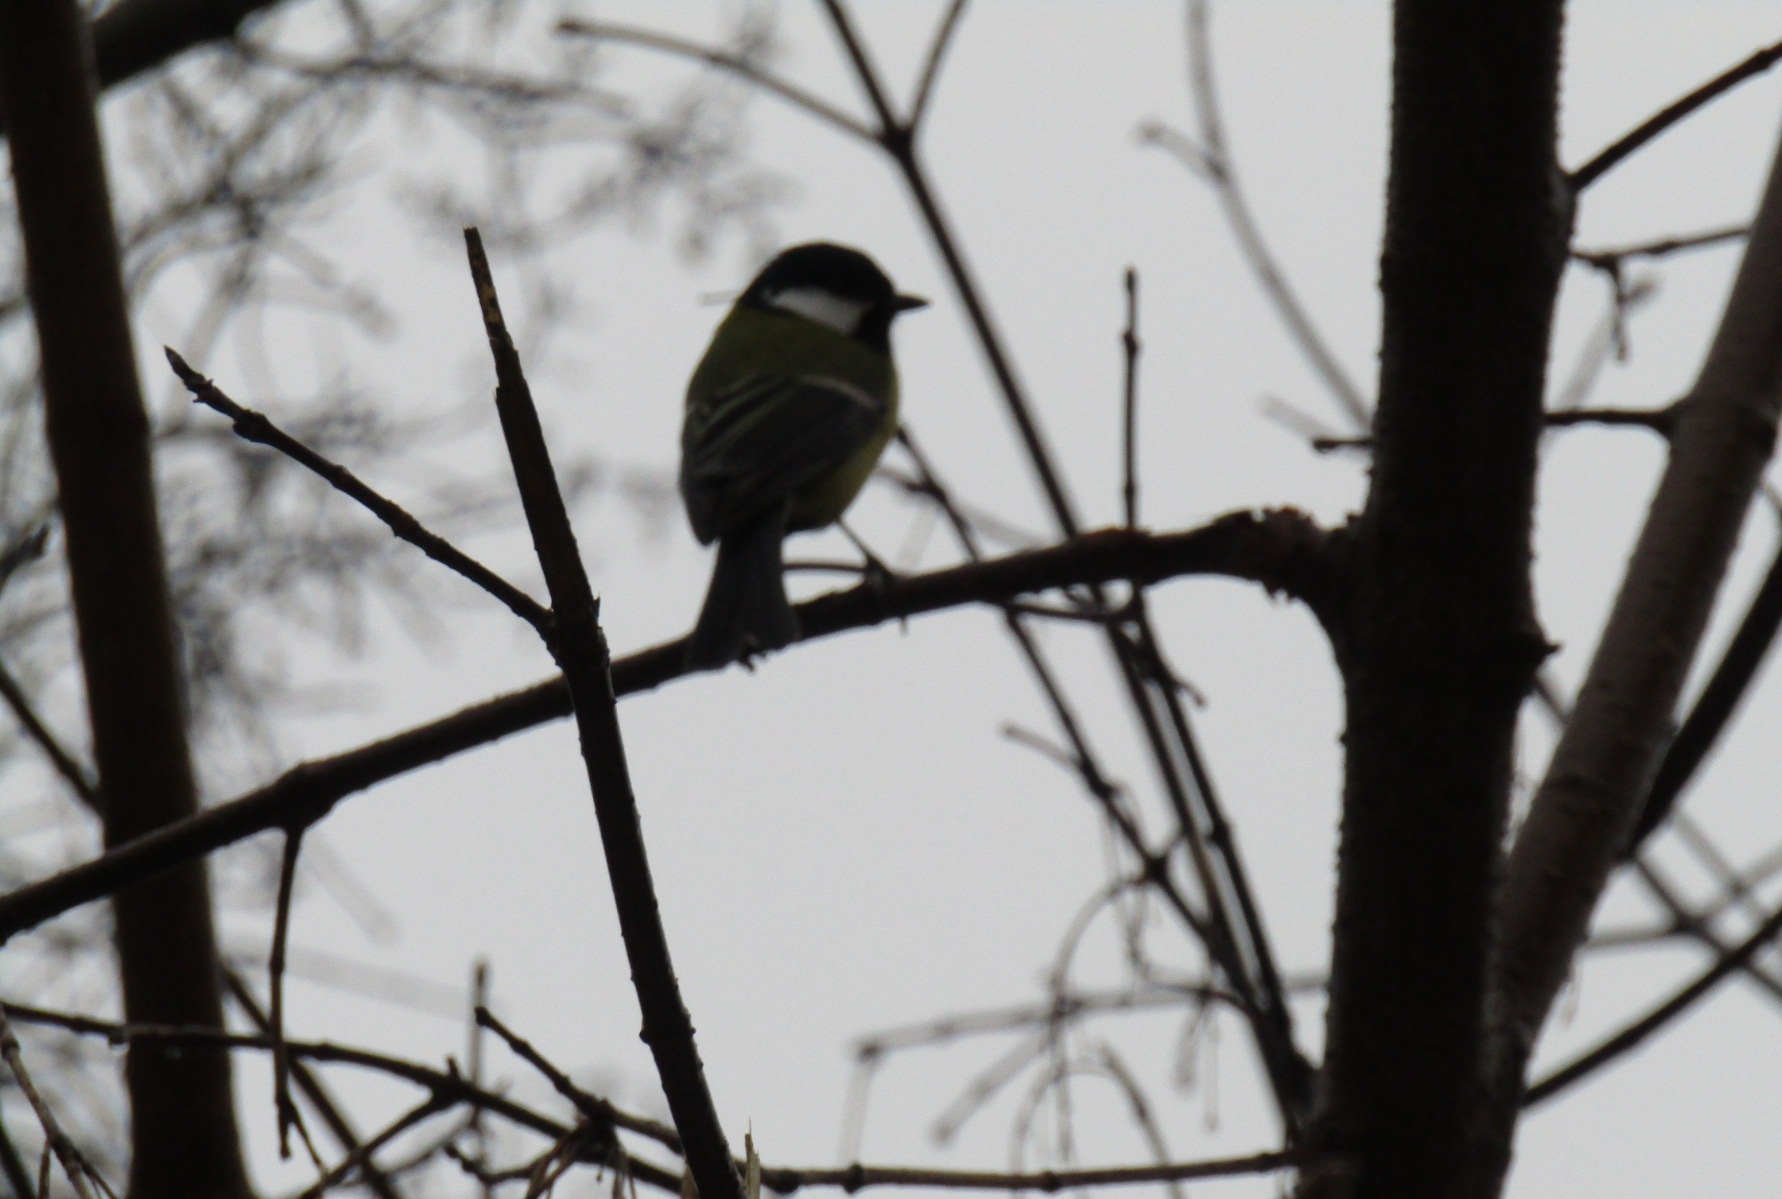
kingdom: Animalia
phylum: Chordata
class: Aves
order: Passeriformes
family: Paridae
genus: Parus
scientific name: Parus major
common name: Great tit
